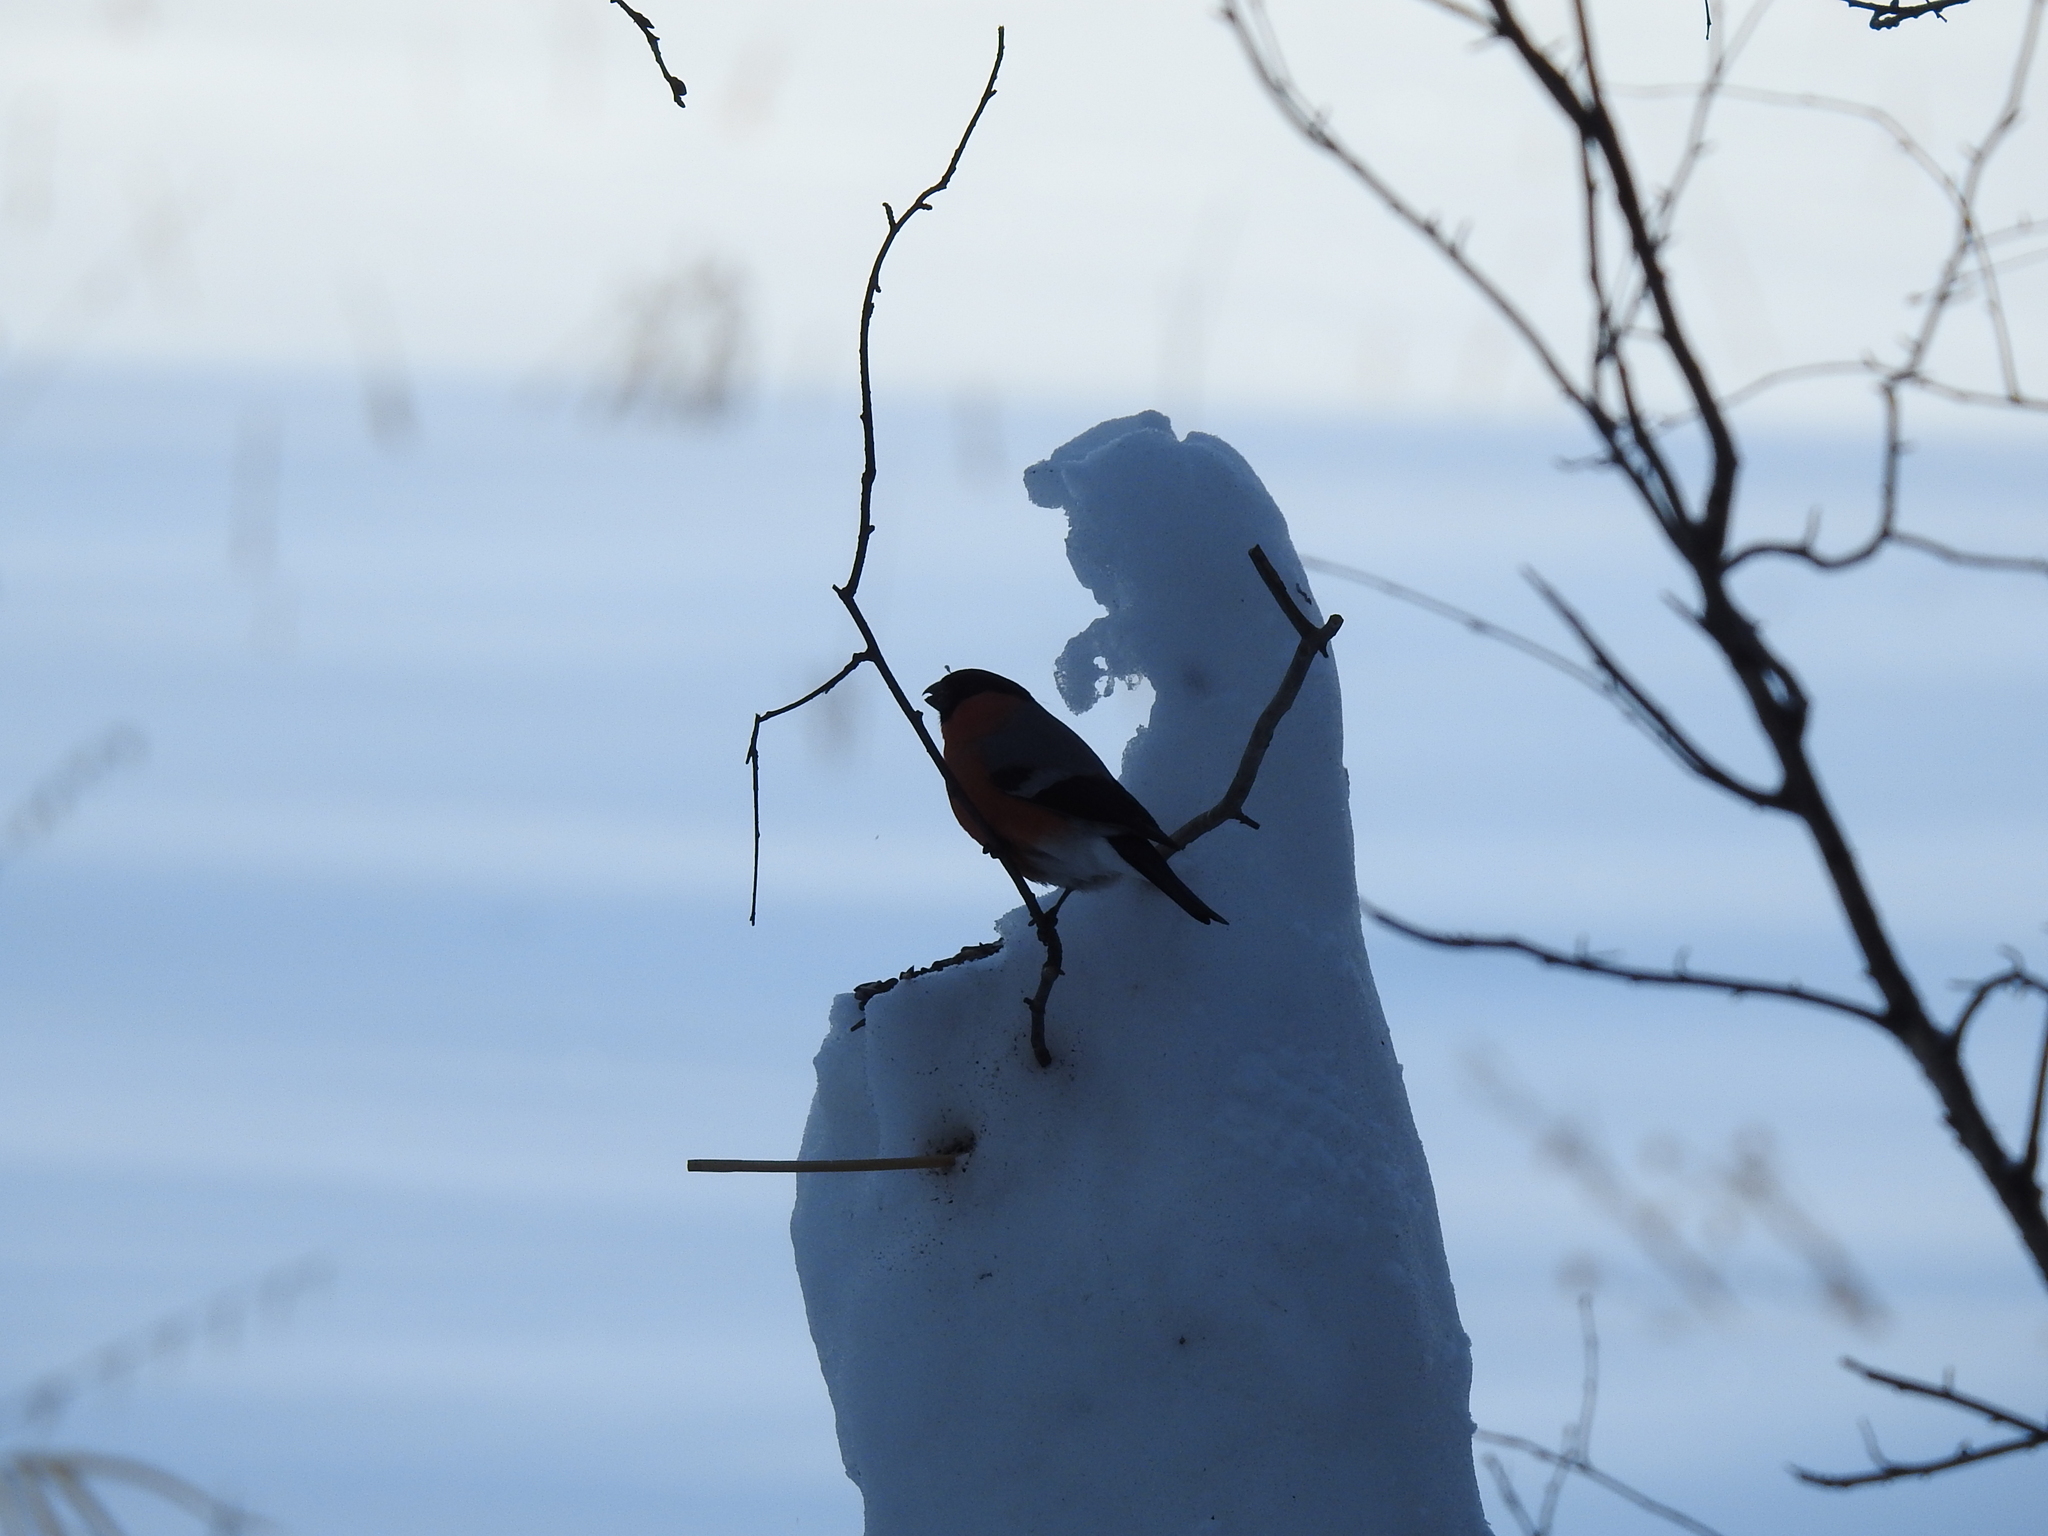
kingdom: Animalia
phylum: Chordata
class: Aves
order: Passeriformes
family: Fringillidae
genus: Pyrrhula
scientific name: Pyrrhula pyrrhula
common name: Eurasian bullfinch
